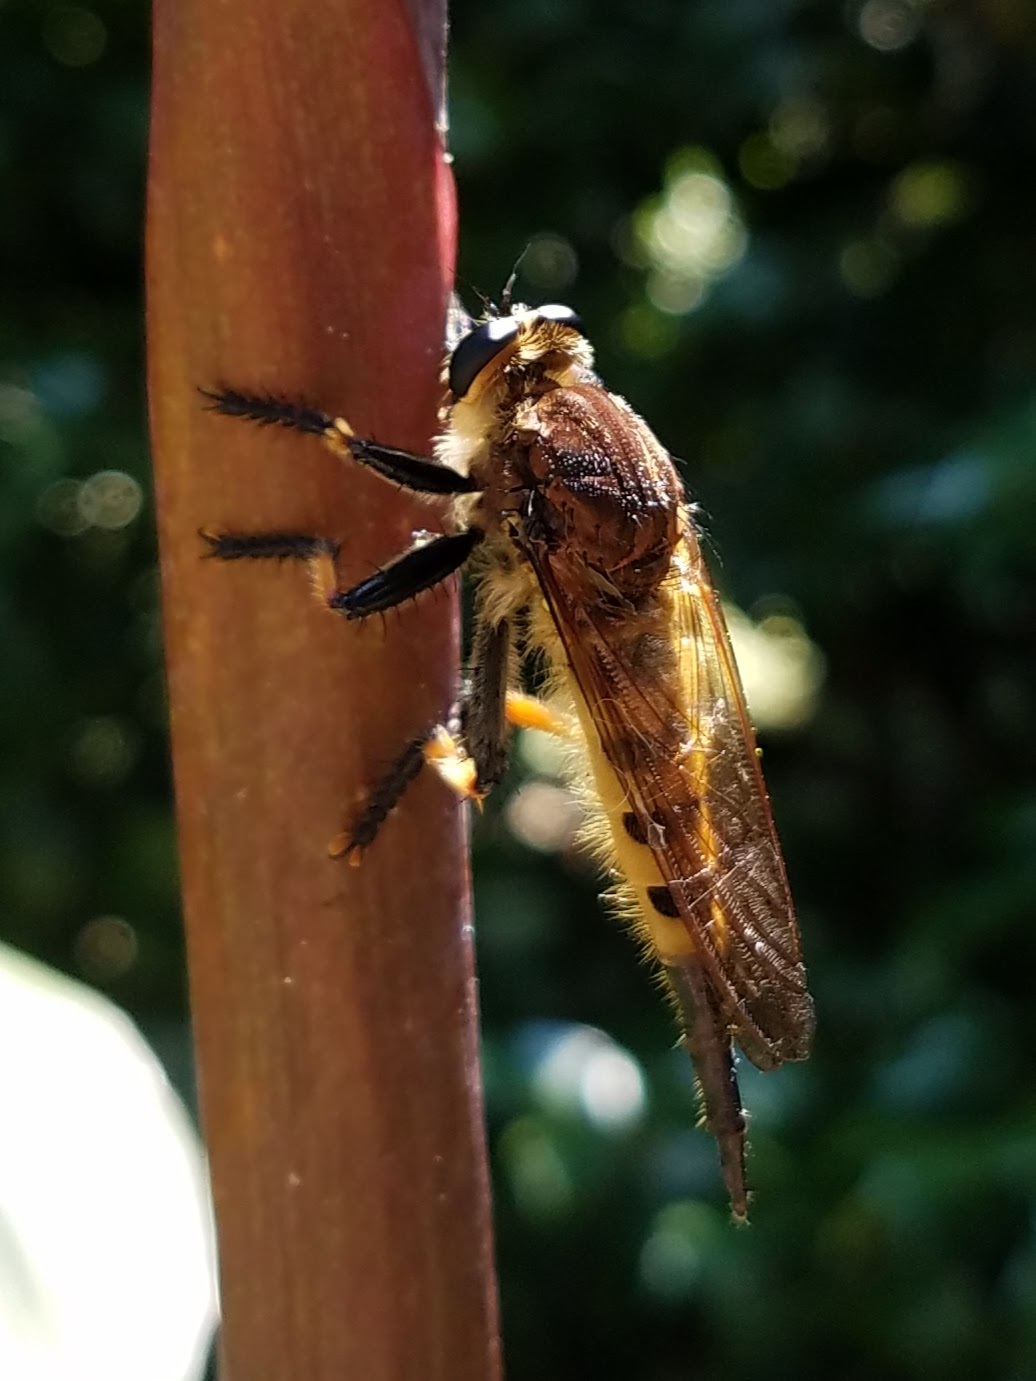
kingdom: Animalia
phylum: Arthropoda
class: Insecta
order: Diptera
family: Asilidae
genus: Promachus
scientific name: Promachus rufipes
